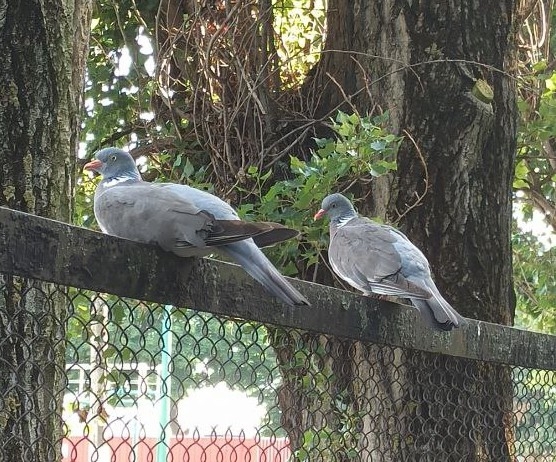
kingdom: Animalia
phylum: Chordata
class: Aves
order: Columbiformes
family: Columbidae
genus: Columba
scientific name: Columba palumbus
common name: Common wood pigeon
